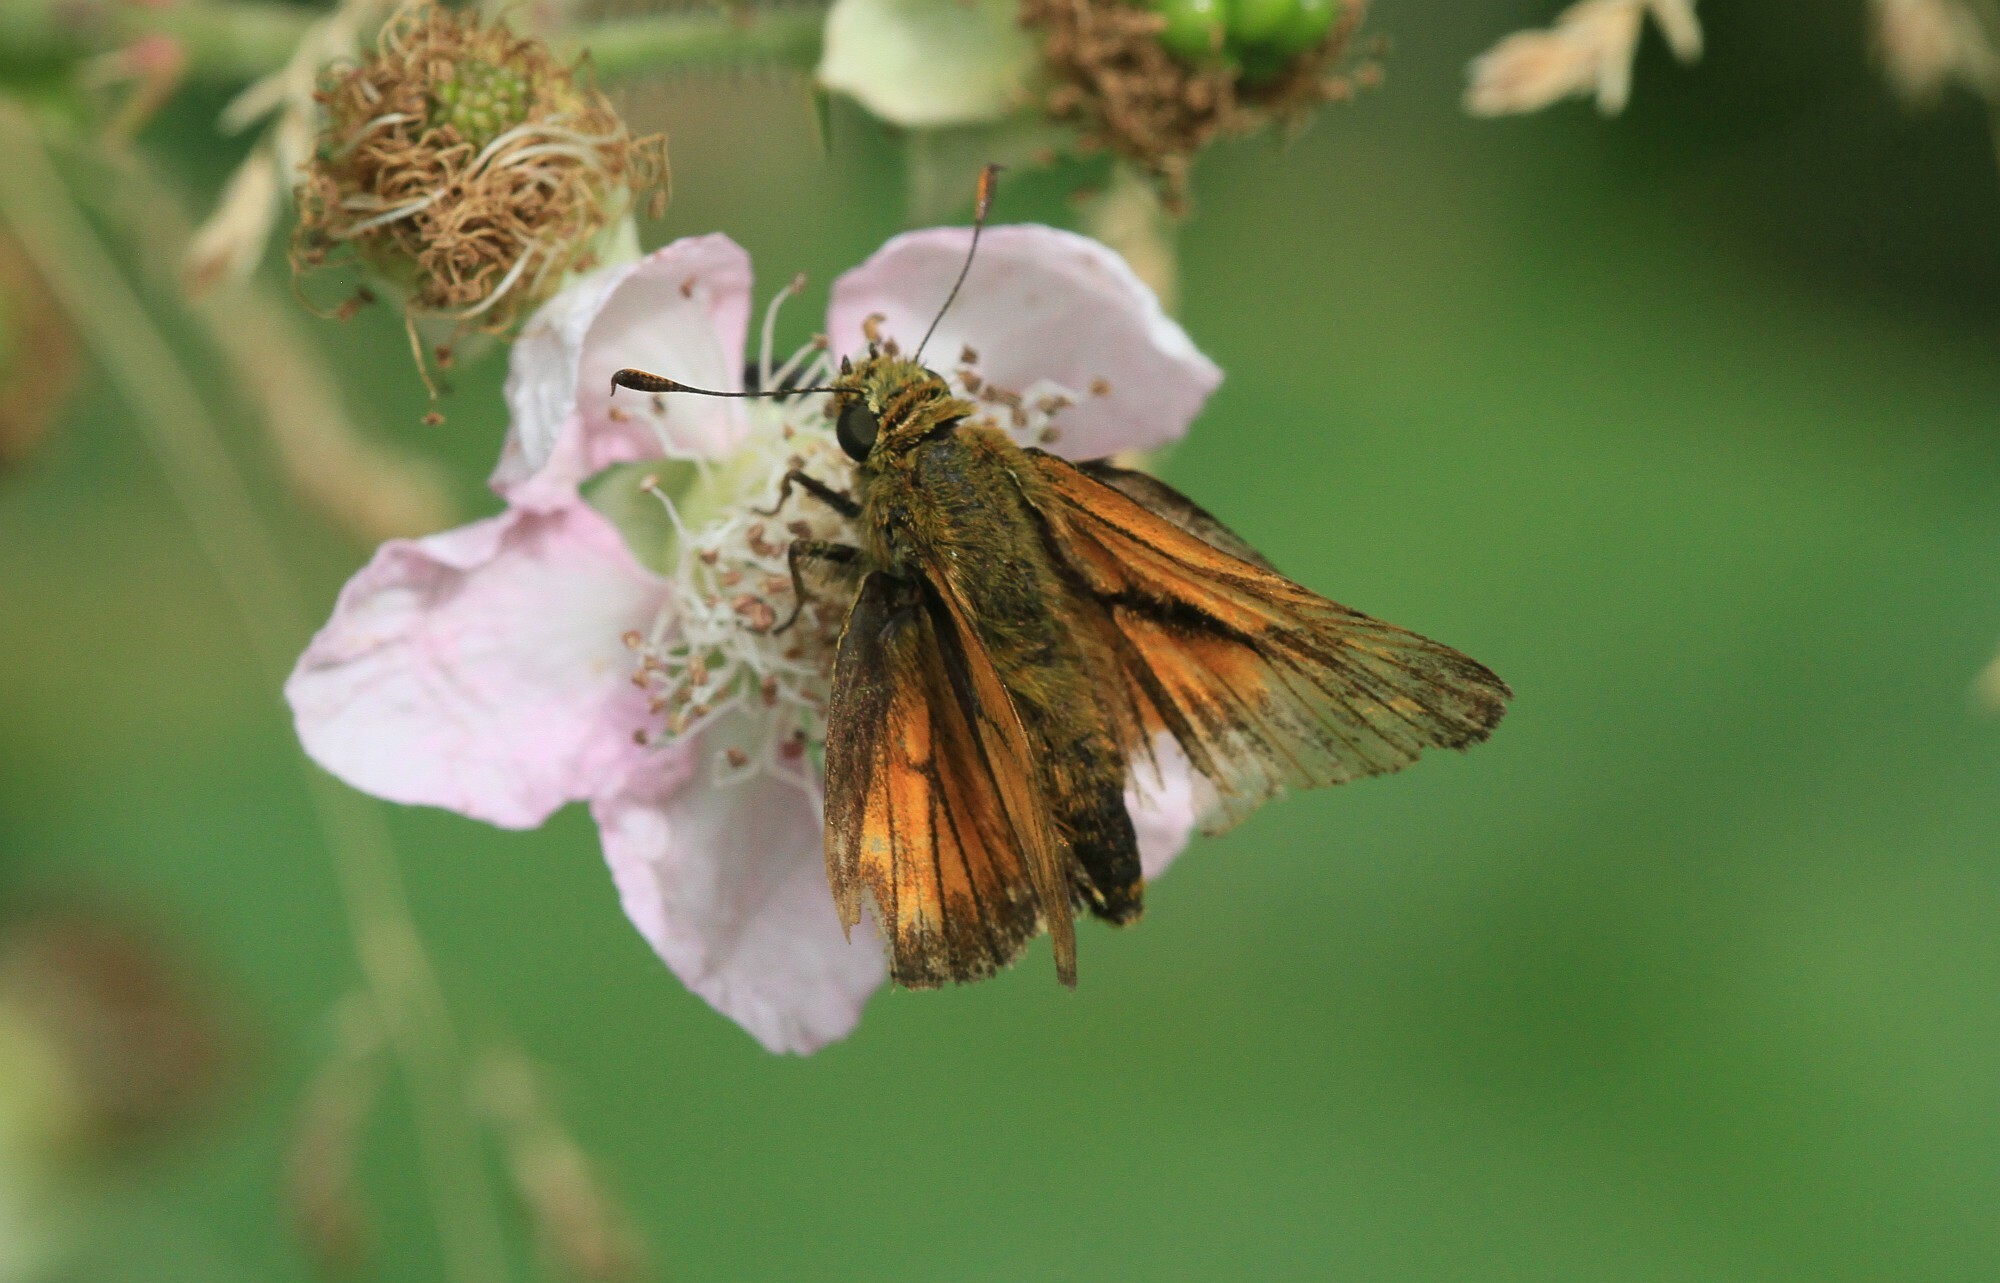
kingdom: Animalia
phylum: Arthropoda
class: Insecta
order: Lepidoptera
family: Hesperiidae
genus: Ochlodes
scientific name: Ochlodes venata
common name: Large skipper
